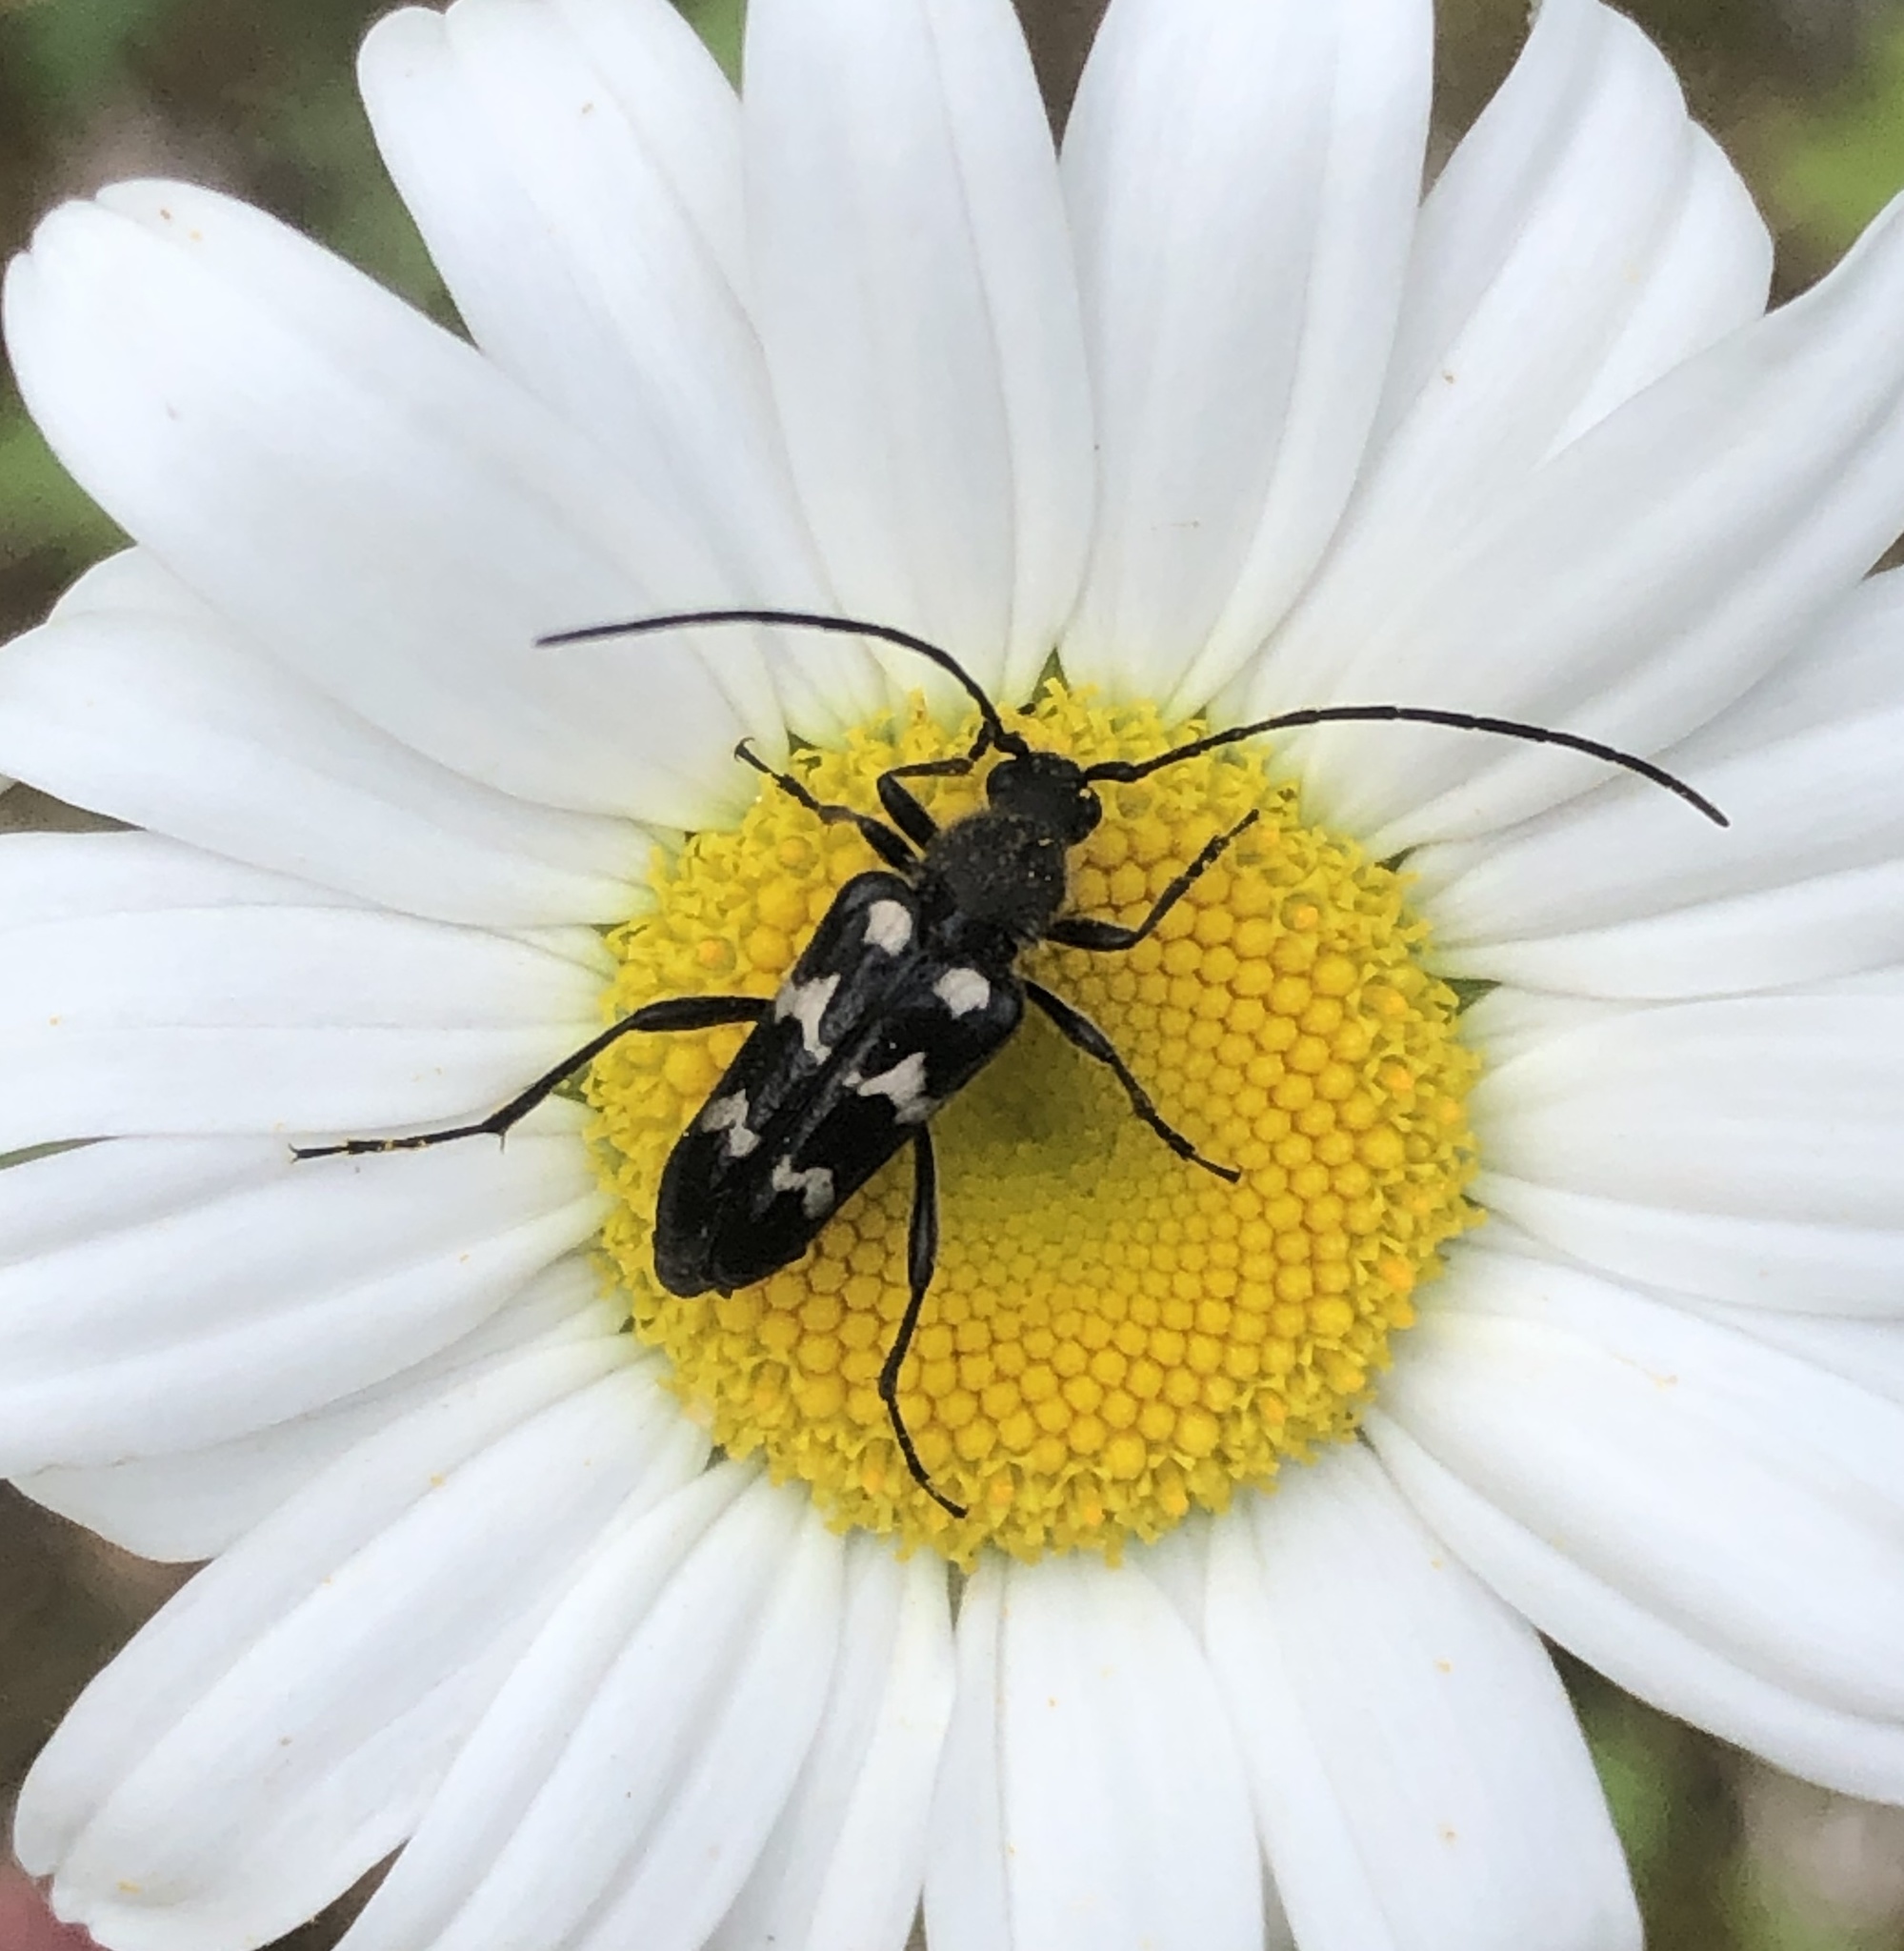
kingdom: Animalia
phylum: Arthropoda
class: Insecta
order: Coleoptera
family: Cerambycidae
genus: Judolia
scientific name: Judolia montivagans
